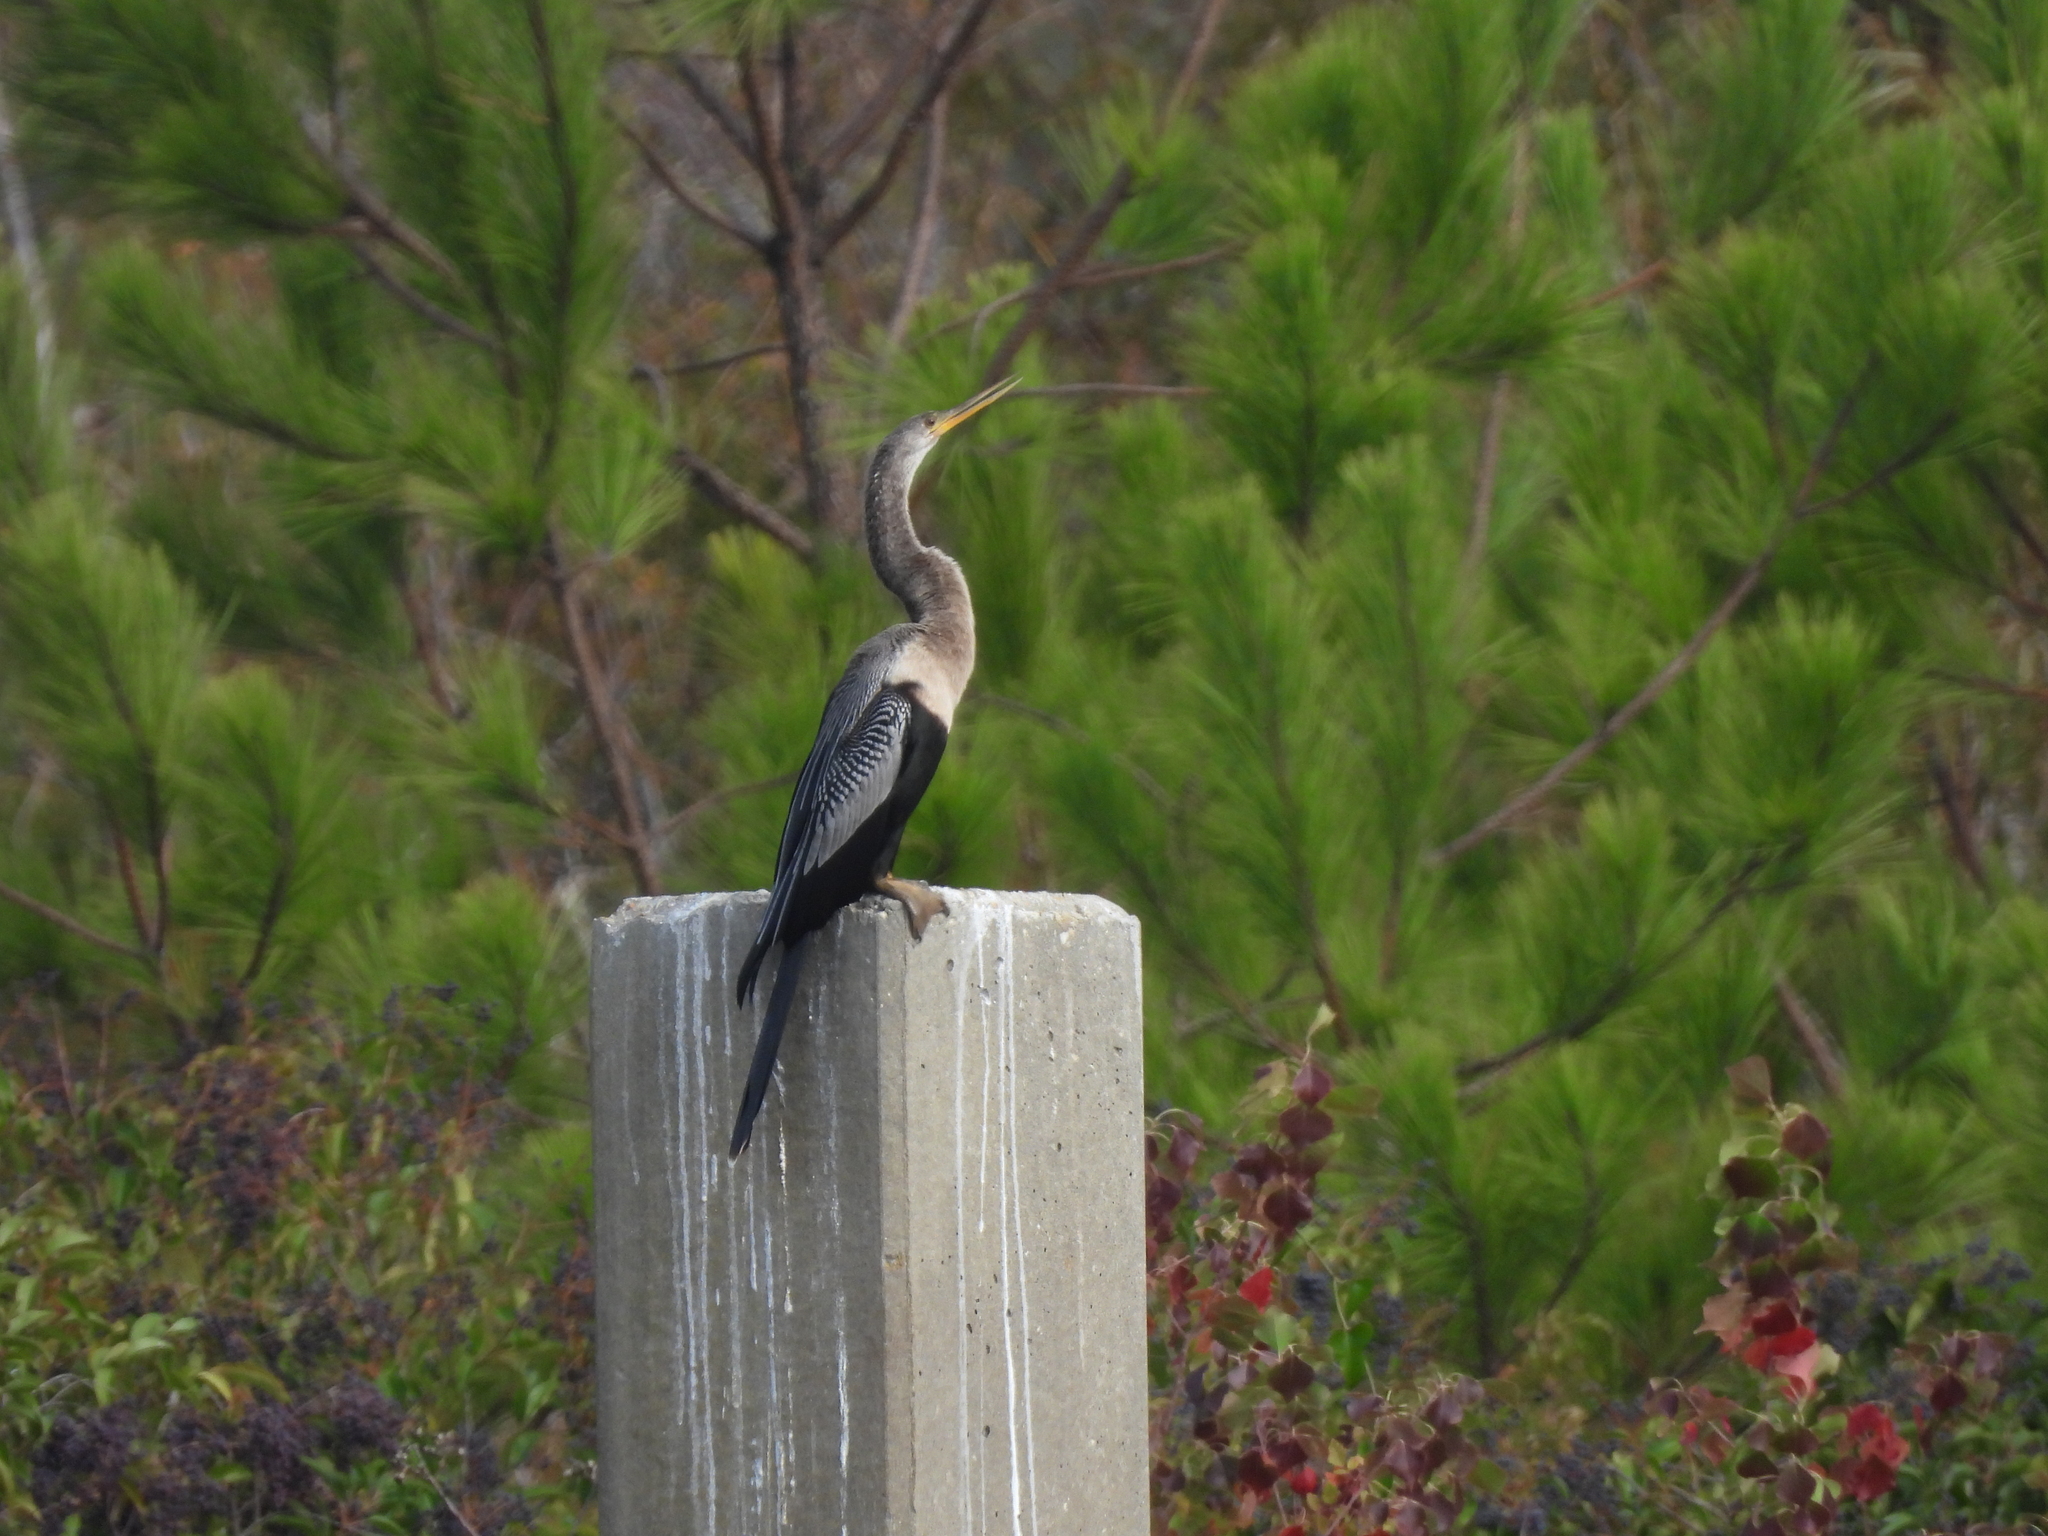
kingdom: Animalia
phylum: Chordata
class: Aves
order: Suliformes
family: Anhingidae
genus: Anhinga
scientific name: Anhinga anhinga
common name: Anhinga
